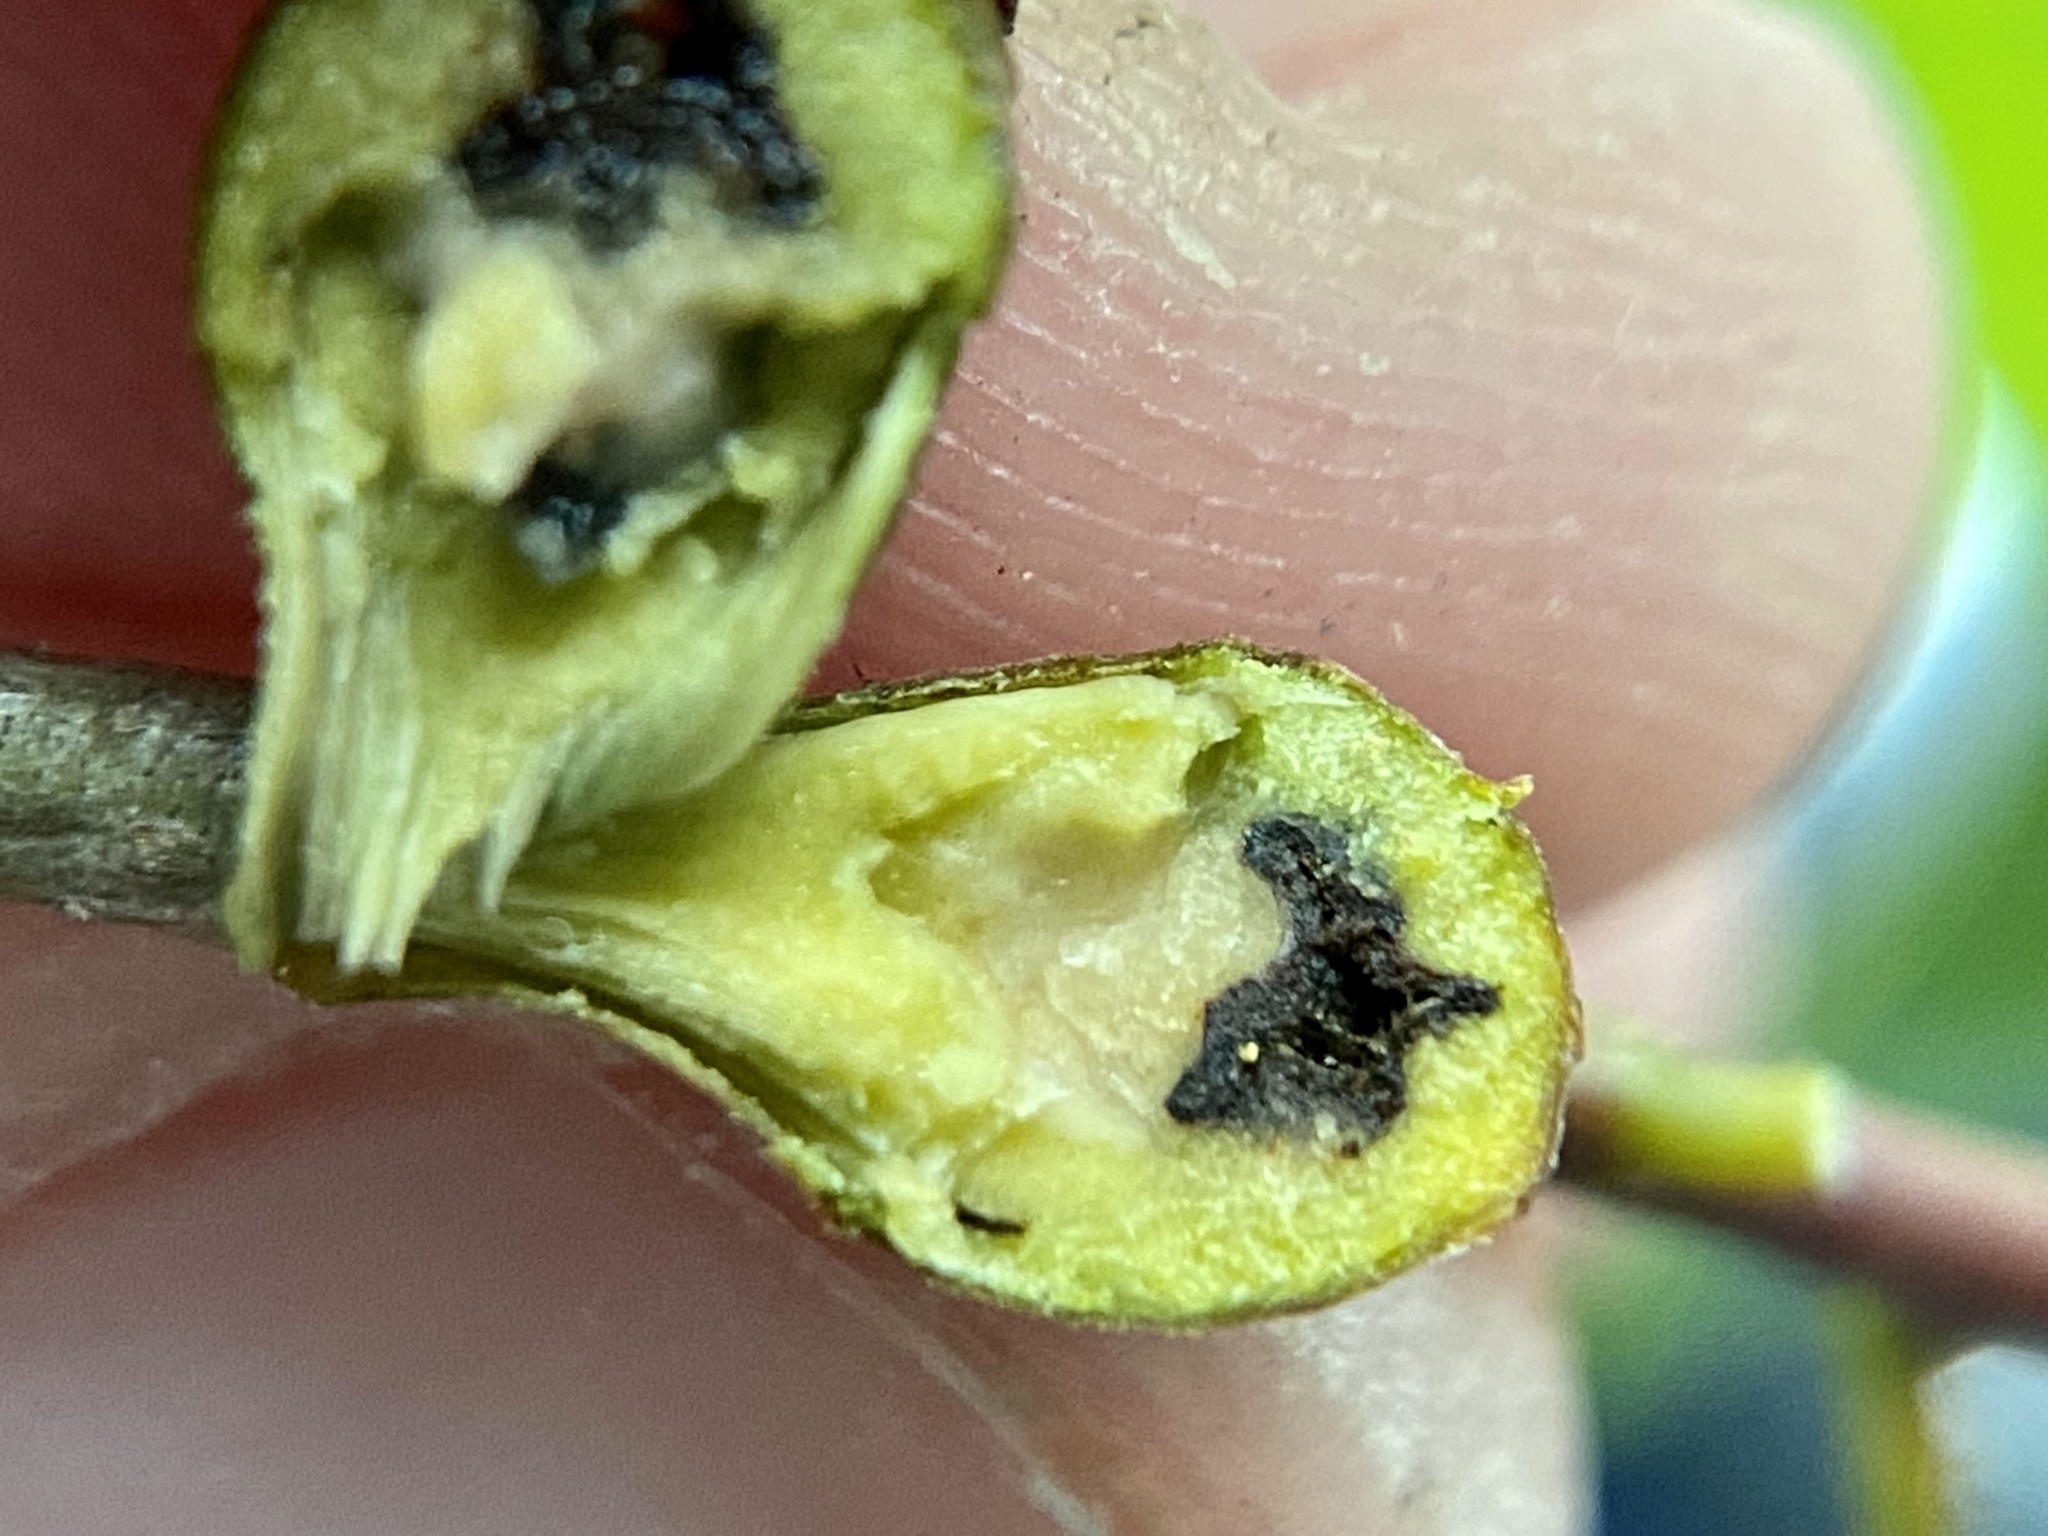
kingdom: Animalia
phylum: Arthropoda
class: Insecta
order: Hymenoptera
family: Cynipidae
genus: Zapatella
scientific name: Zapatella quercusphellos
